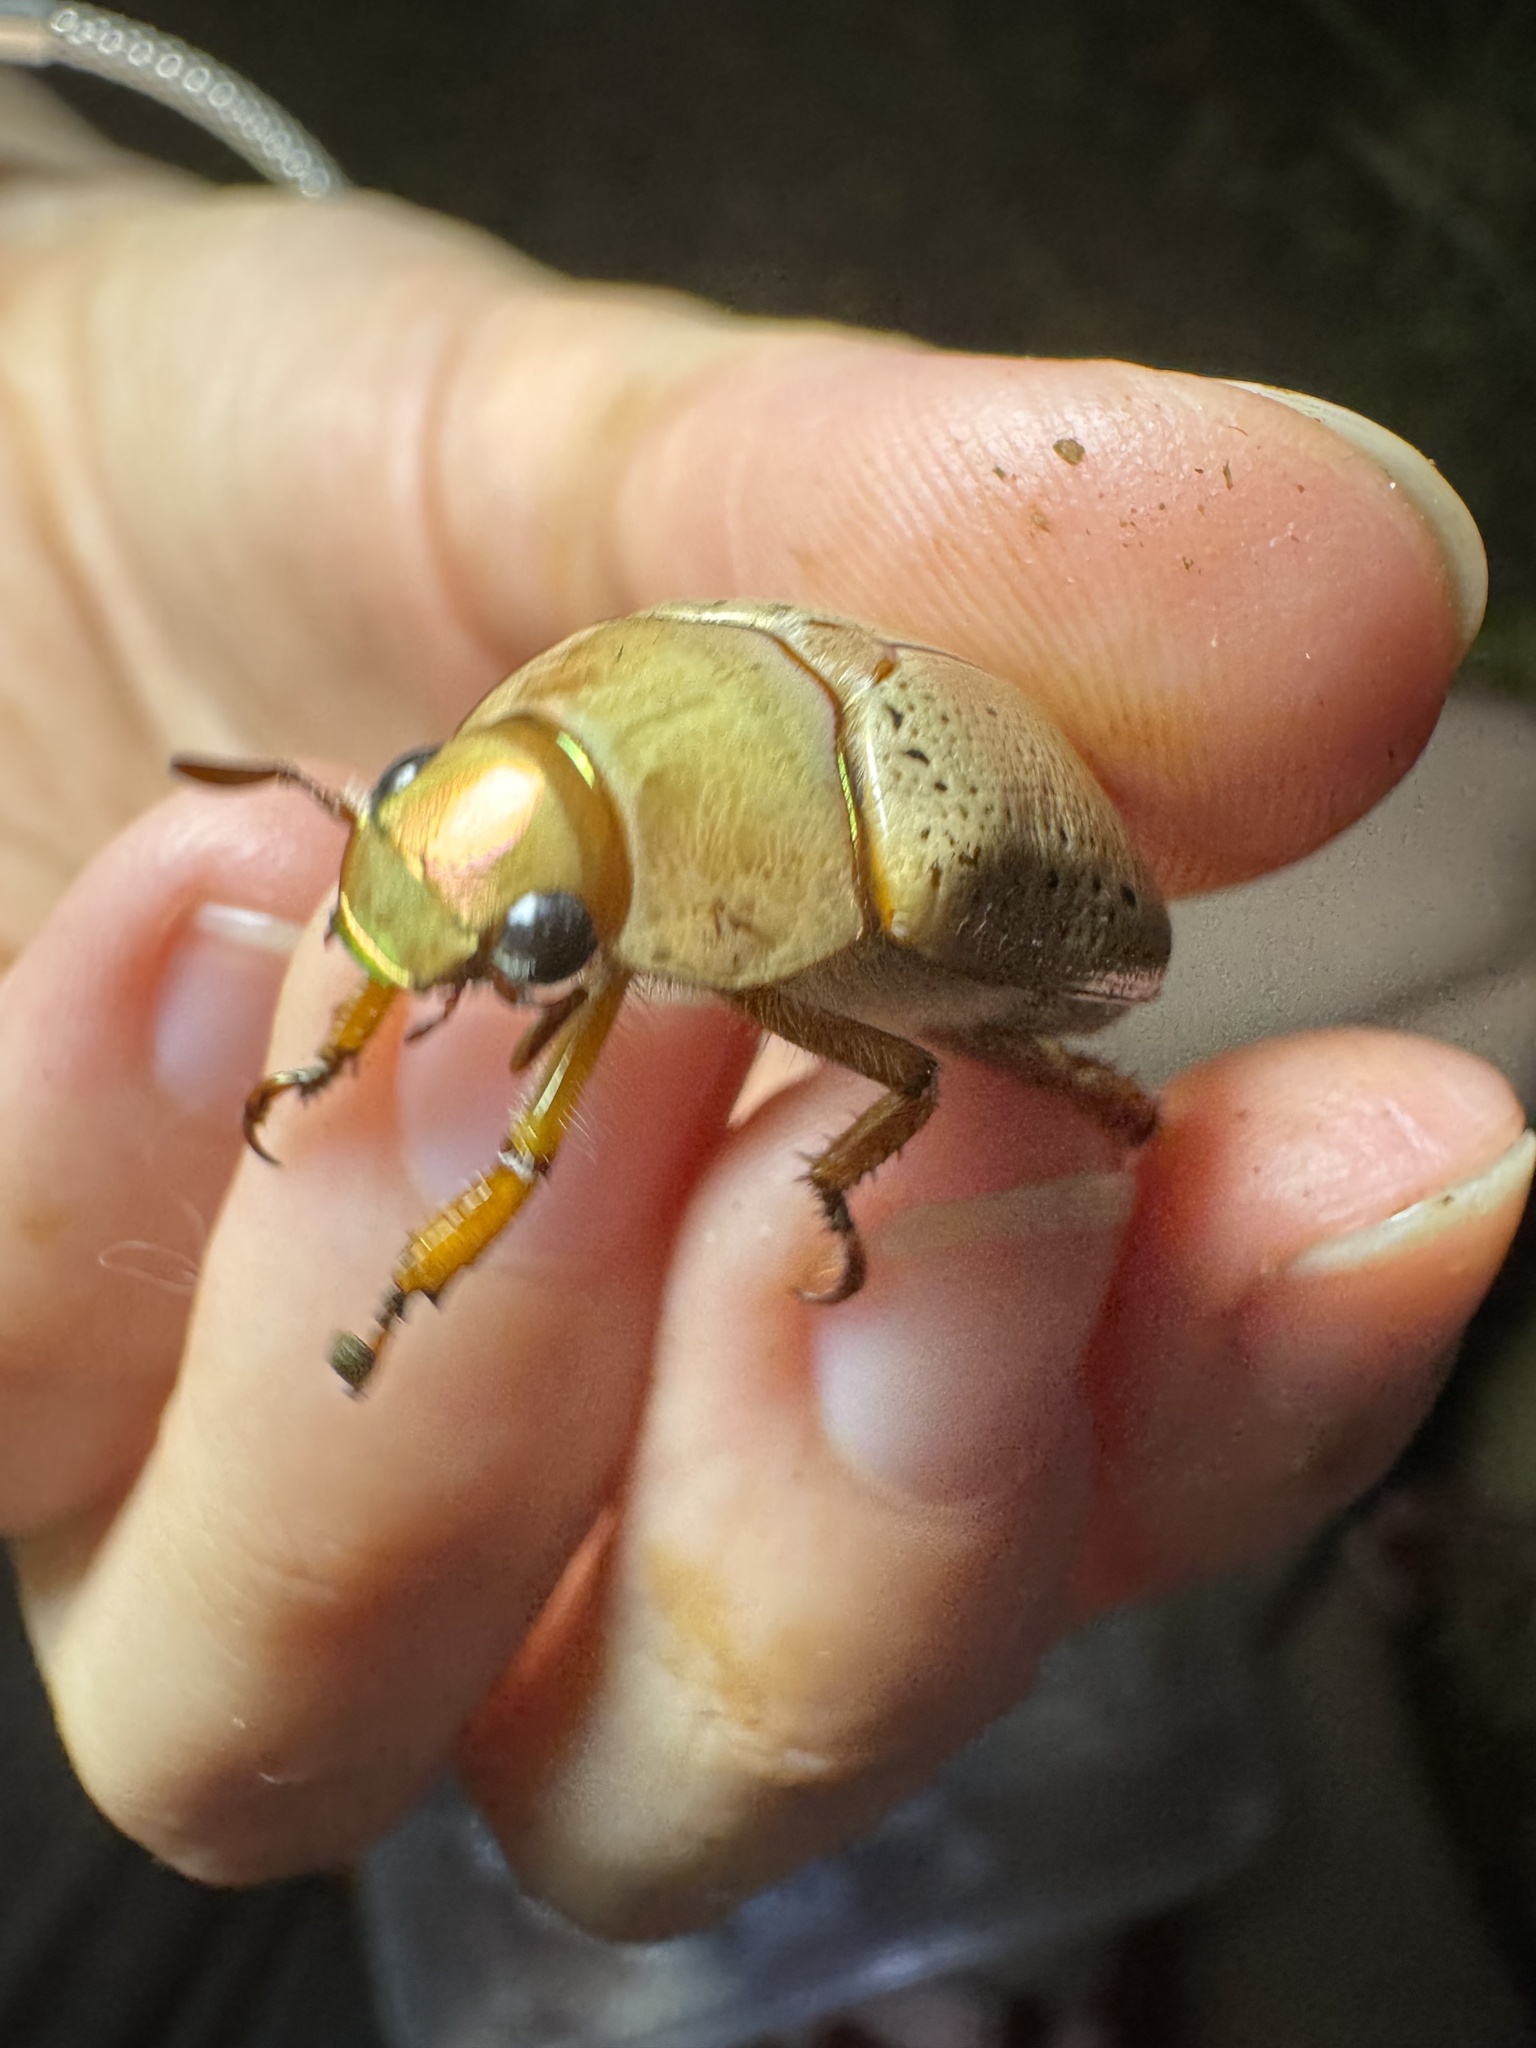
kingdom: Animalia
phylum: Arthropoda
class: Insecta
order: Coleoptera
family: Scarabaeidae
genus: Anoplognathus
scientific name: Anoplognathus porosus
